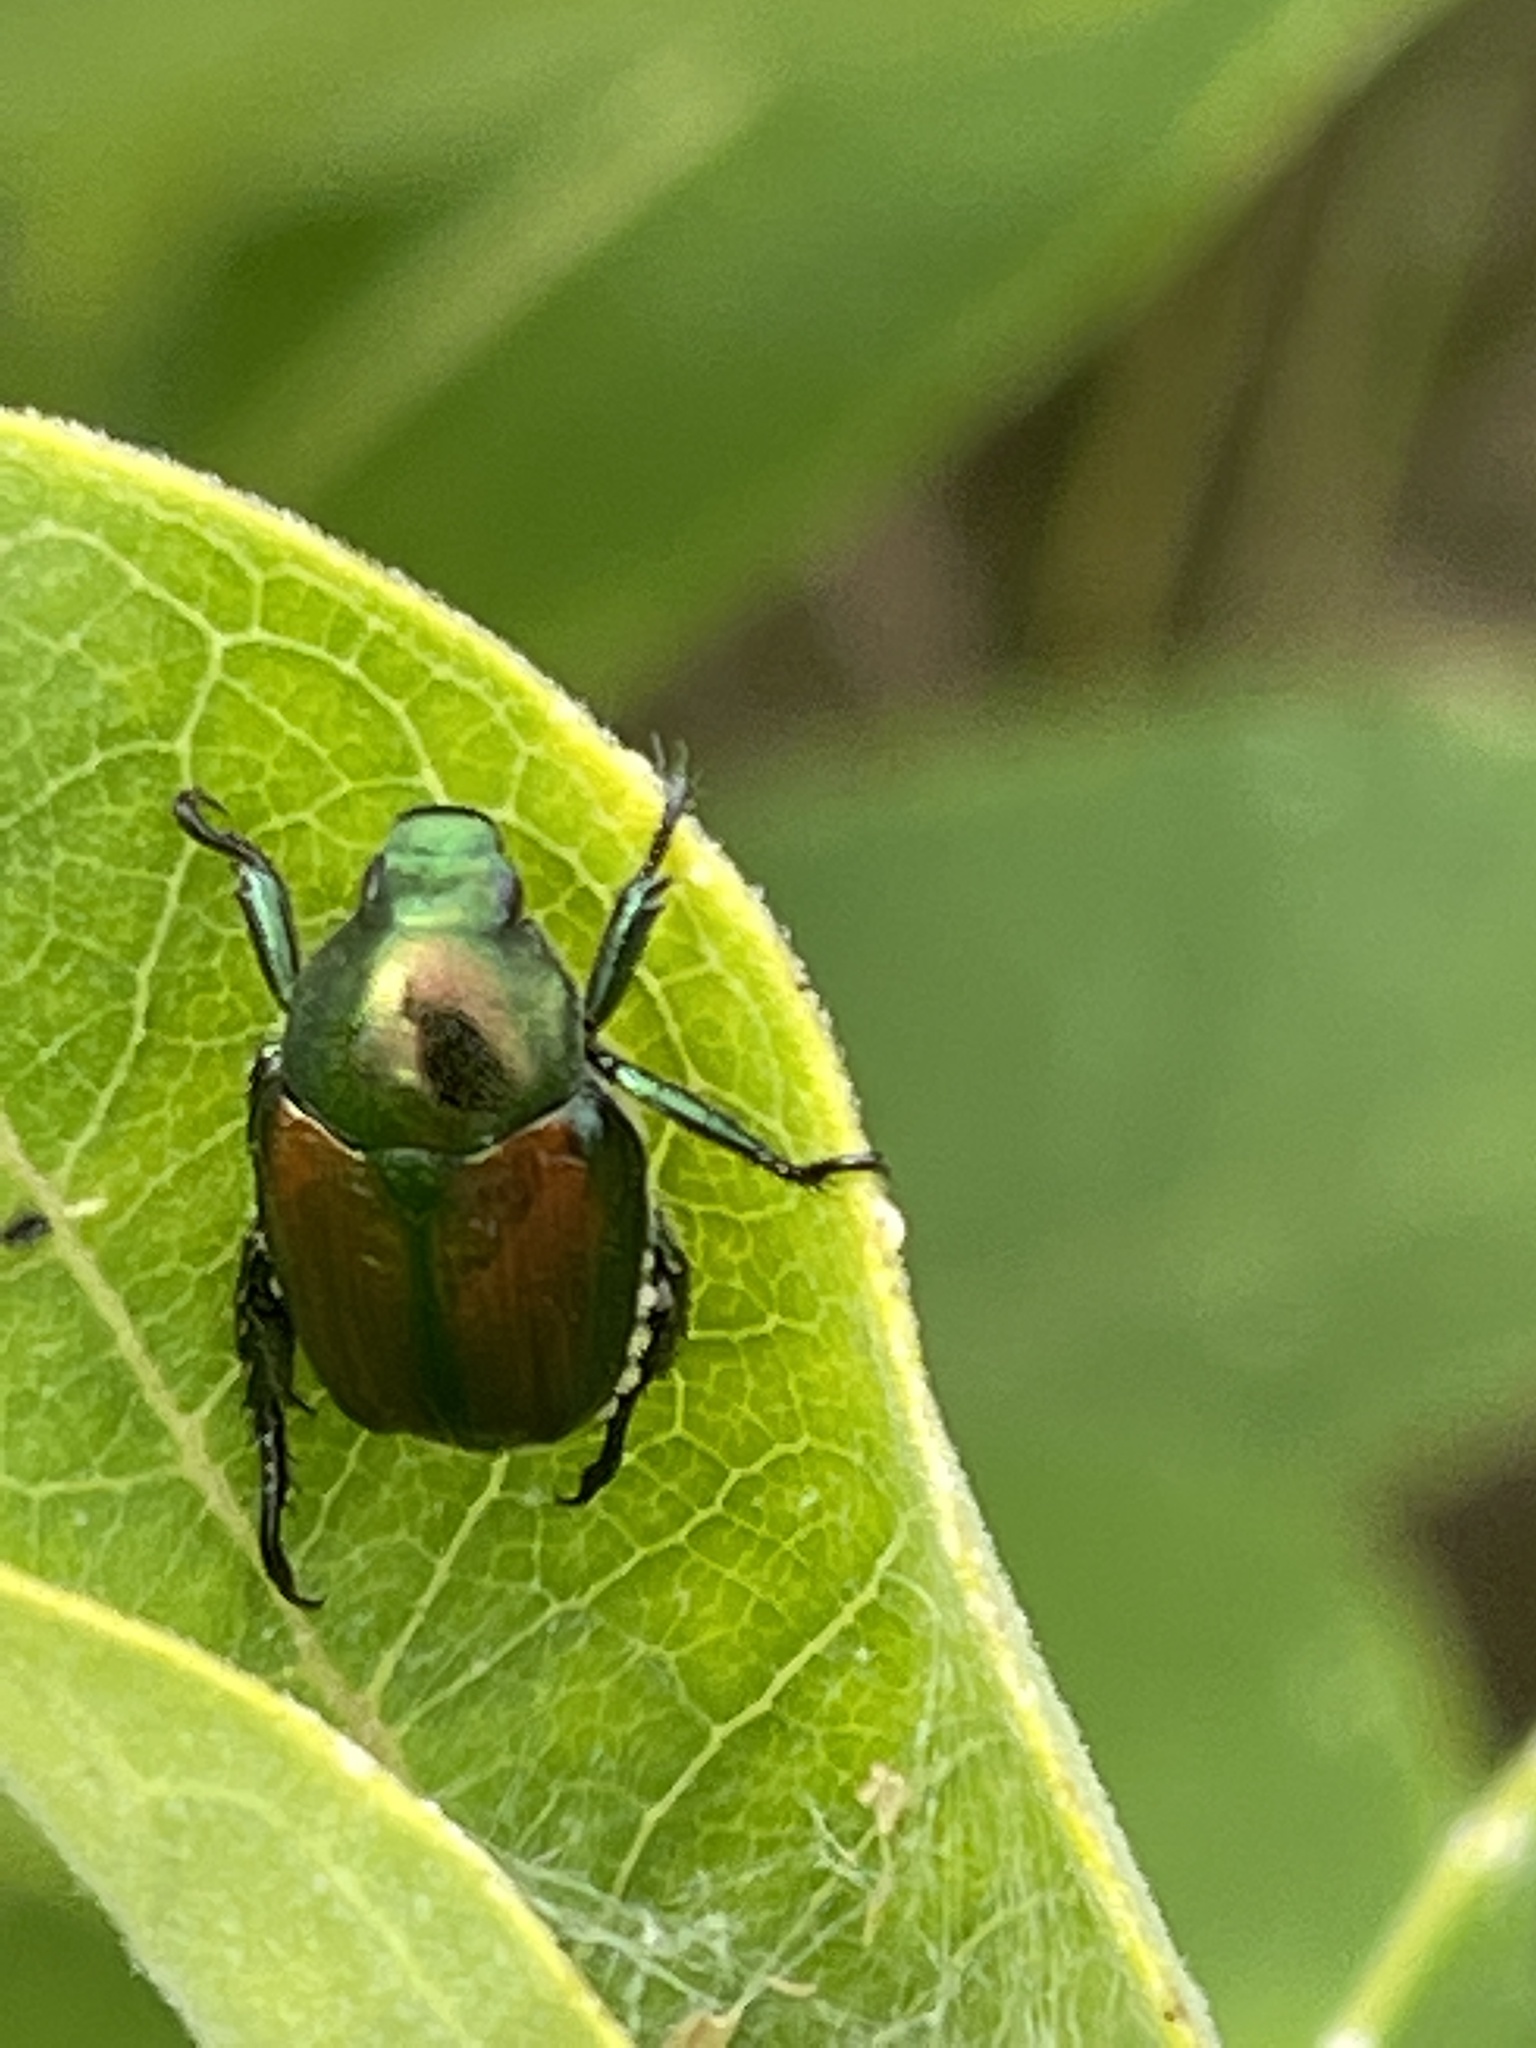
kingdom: Animalia
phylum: Arthropoda
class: Insecta
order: Coleoptera
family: Scarabaeidae
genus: Popillia
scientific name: Popillia japonica
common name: Japanese beetle
